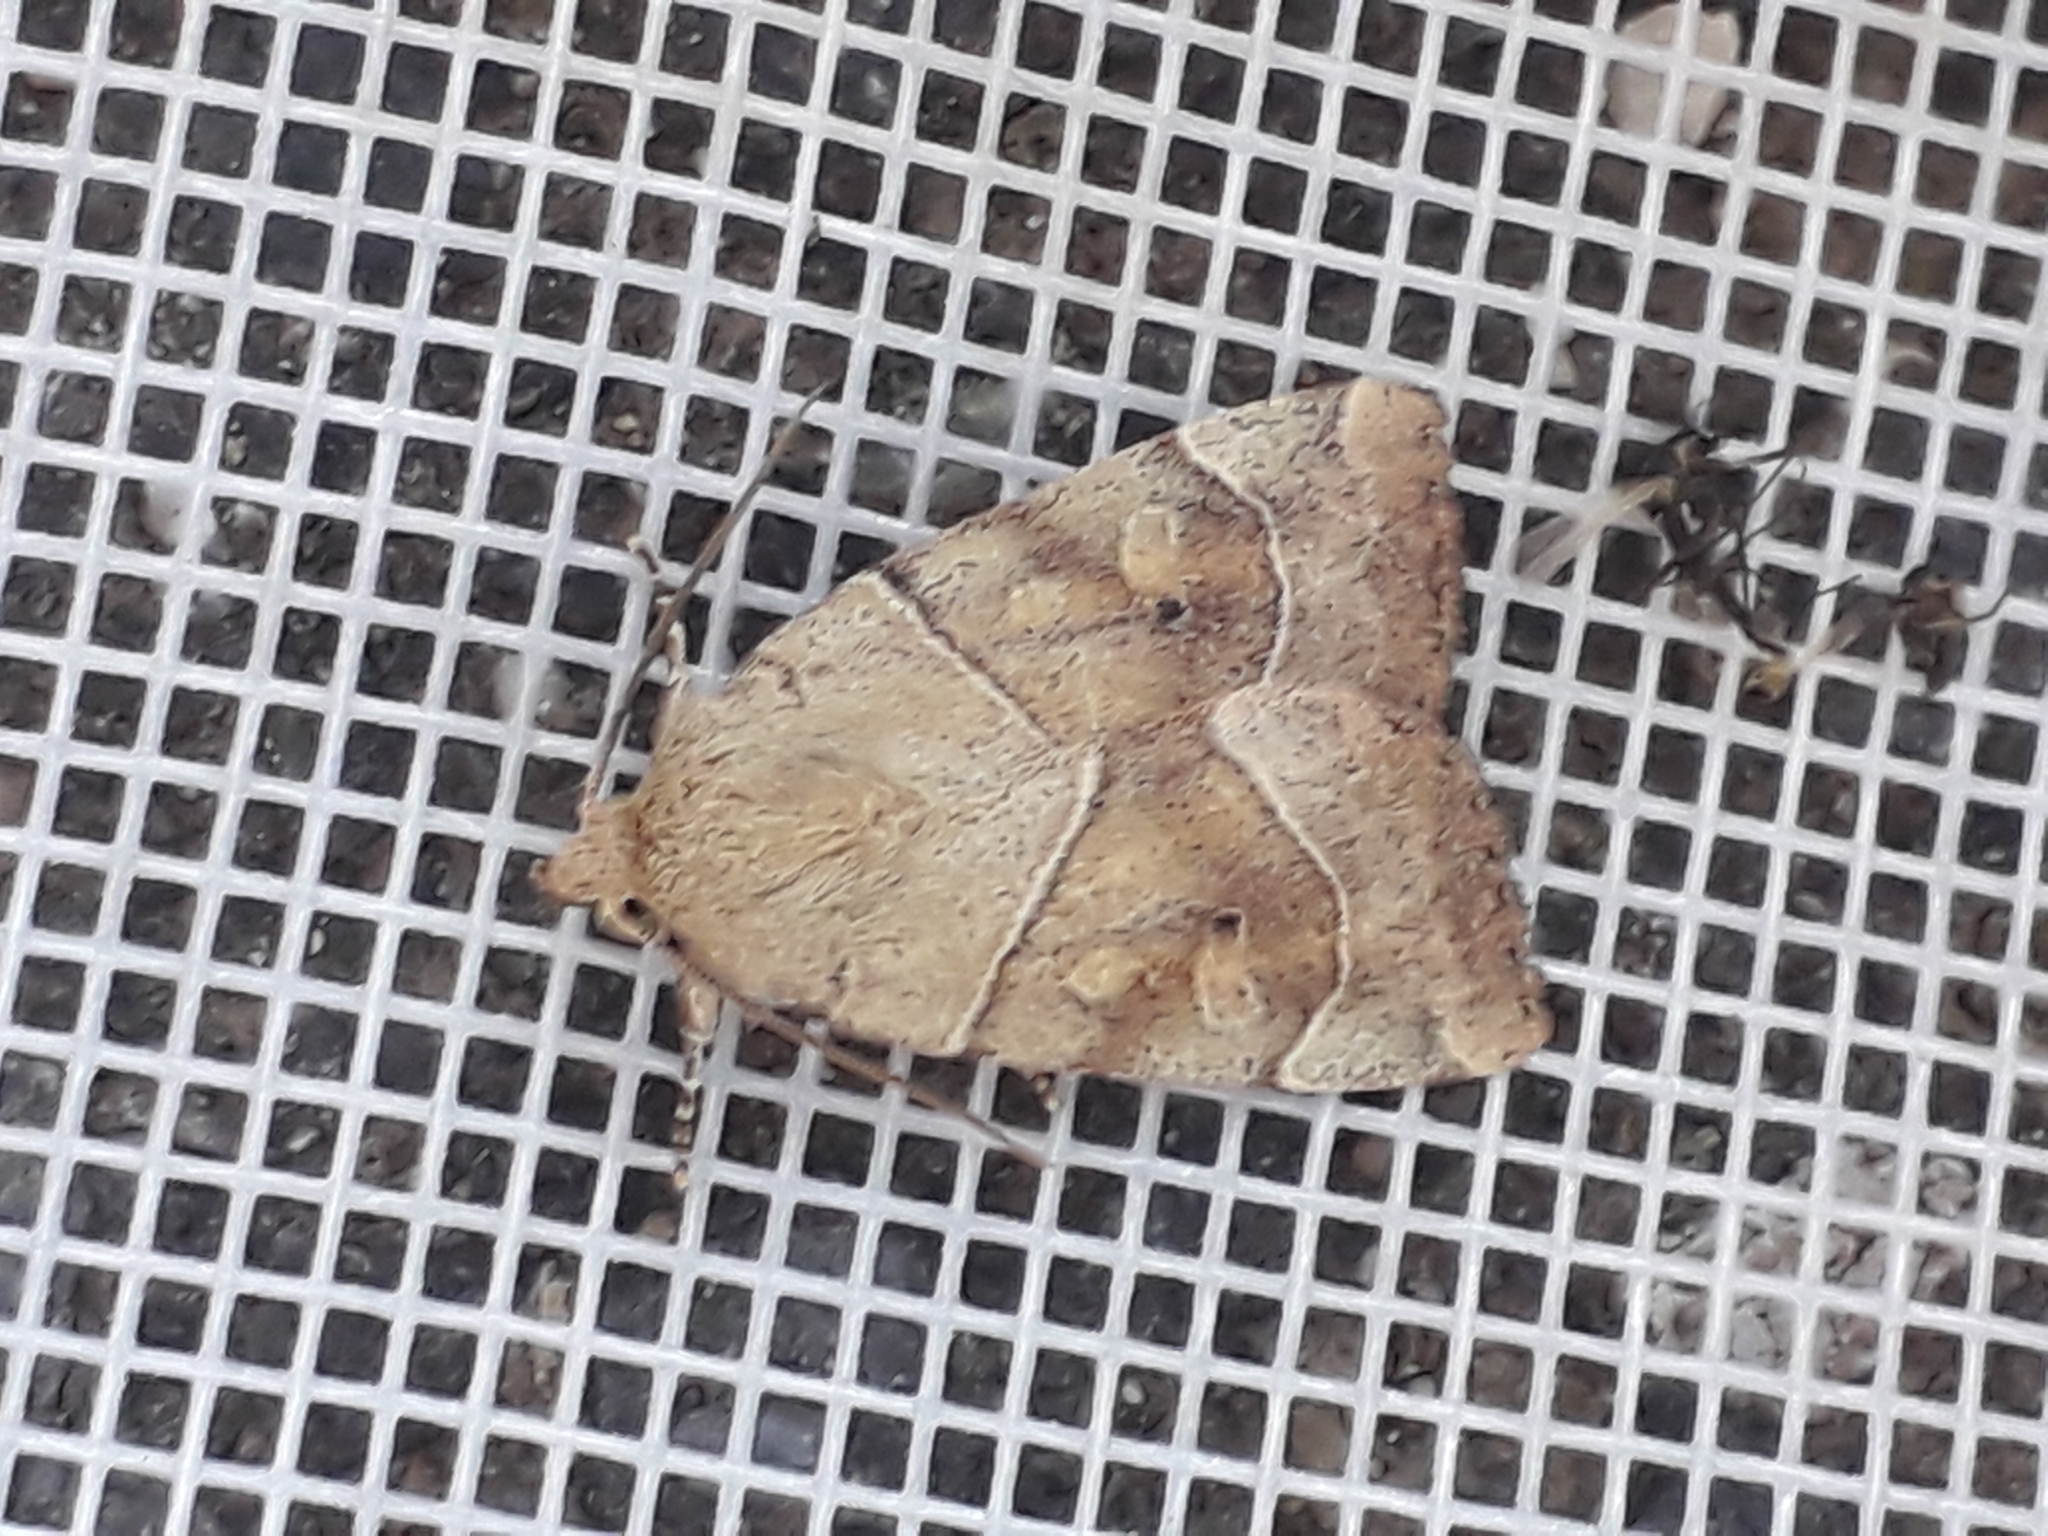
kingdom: Animalia
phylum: Arthropoda
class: Insecta
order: Lepidoptera
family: Noctuidae
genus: Cosmia
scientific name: Cosmia trapezina
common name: Dun-bar
